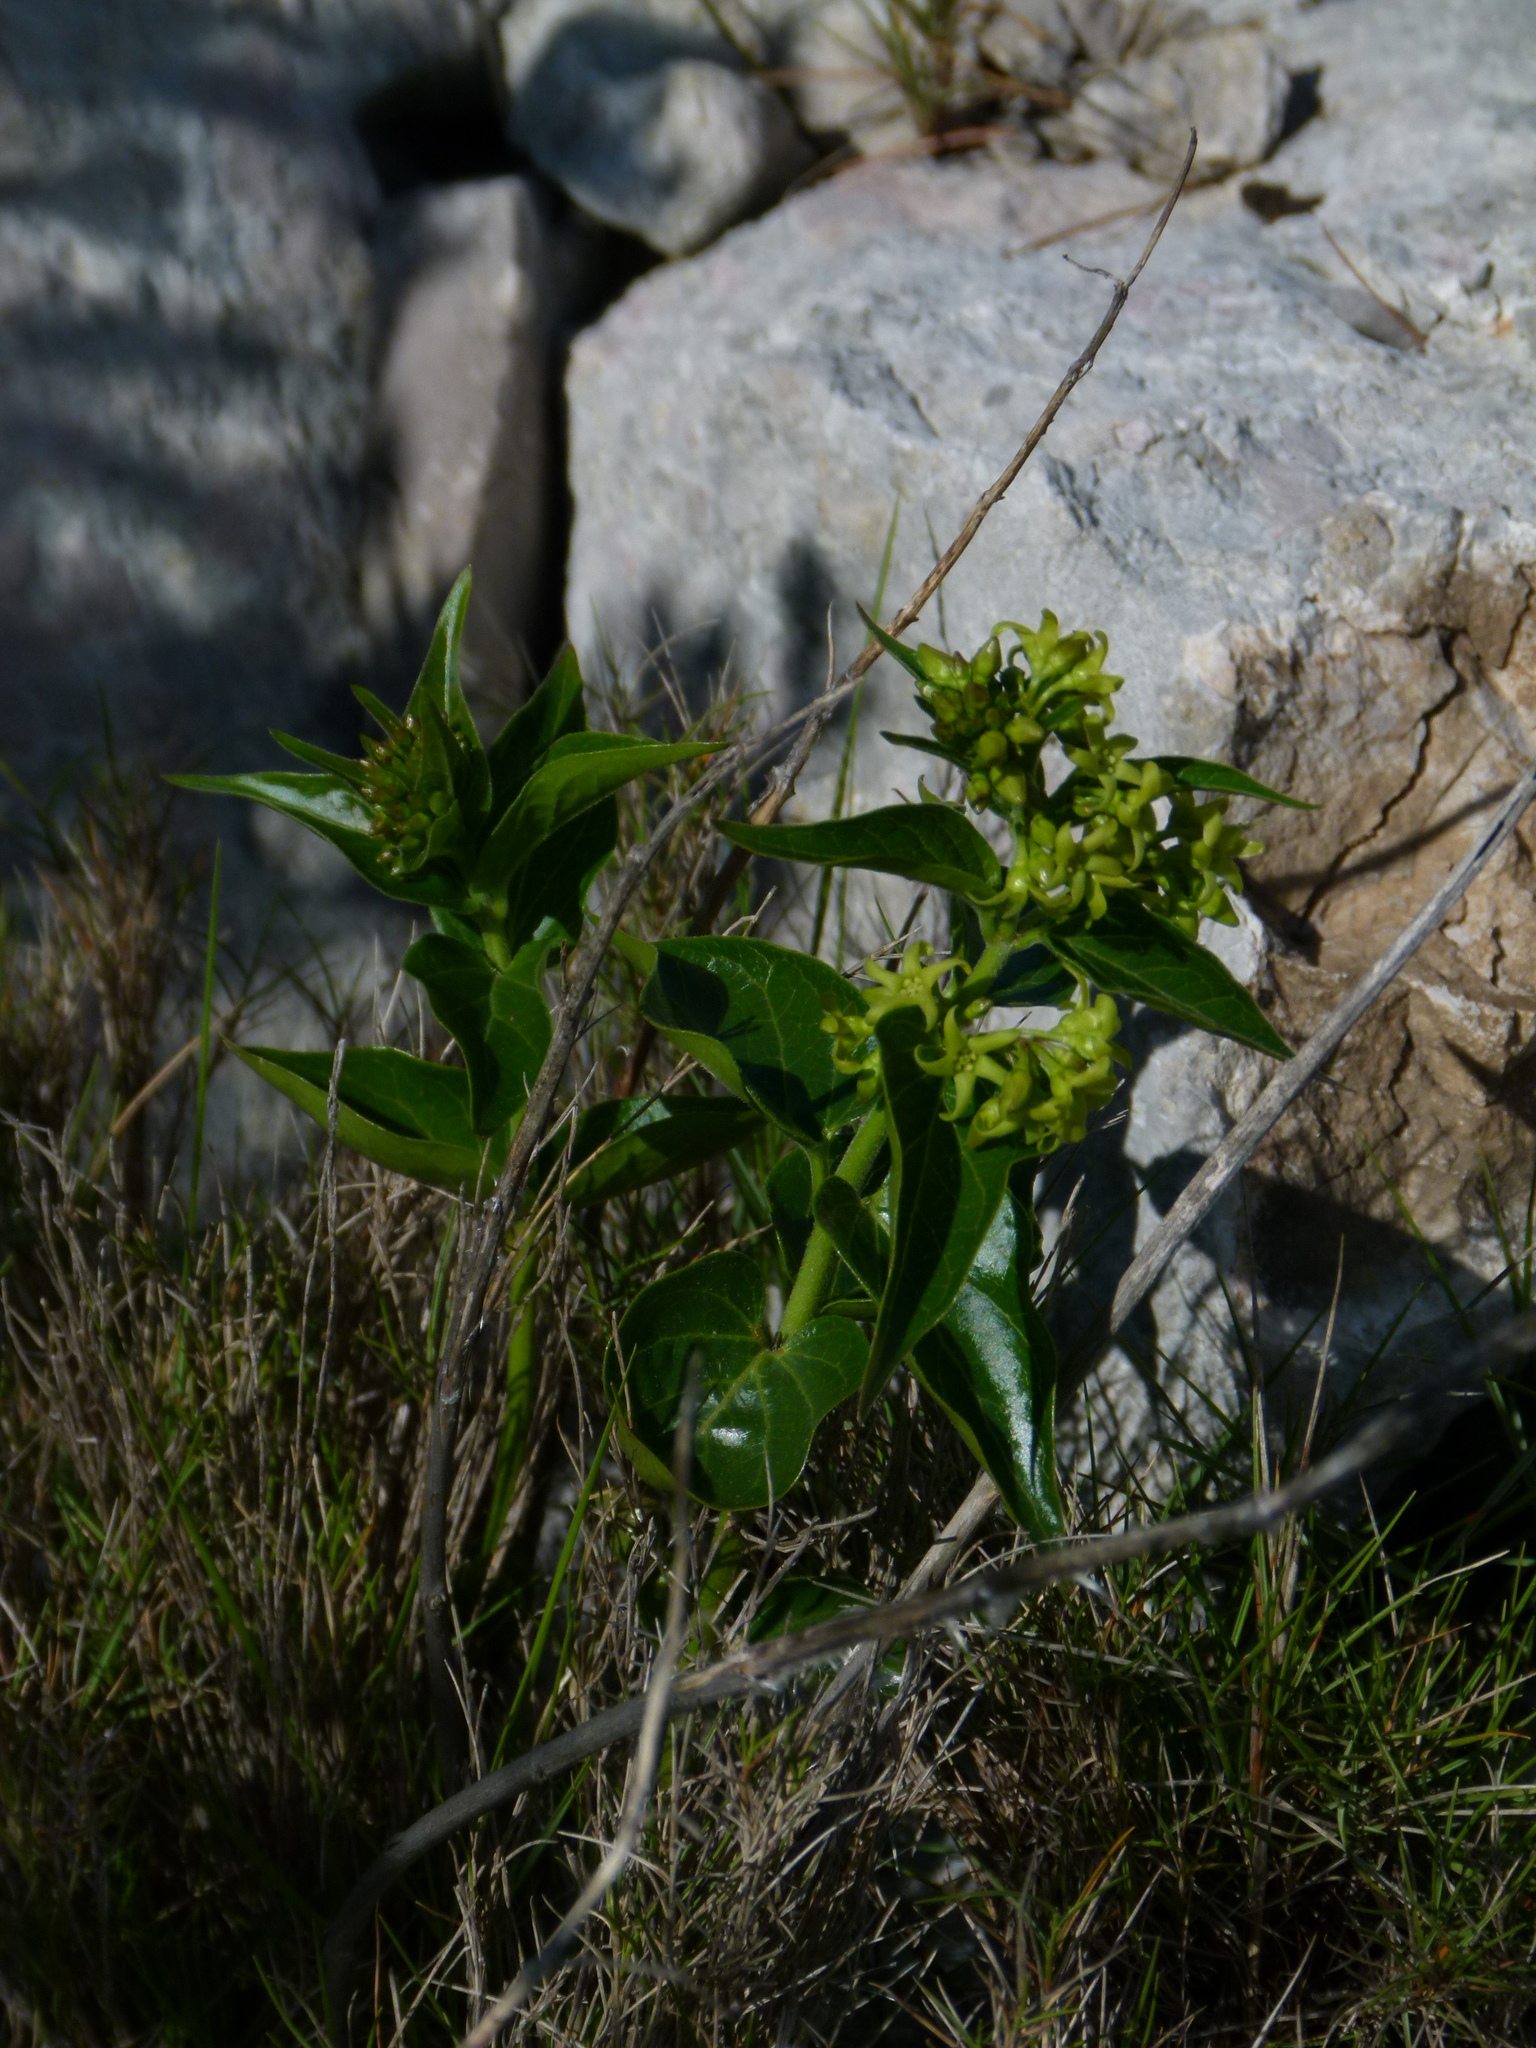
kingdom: Plantae
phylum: Tracheophyta
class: Magnoliopsida
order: Gentianales
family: Apocynaceae
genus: Vincetoxicum
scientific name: Vincetoxicum hirundinaria
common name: White swallowwort
